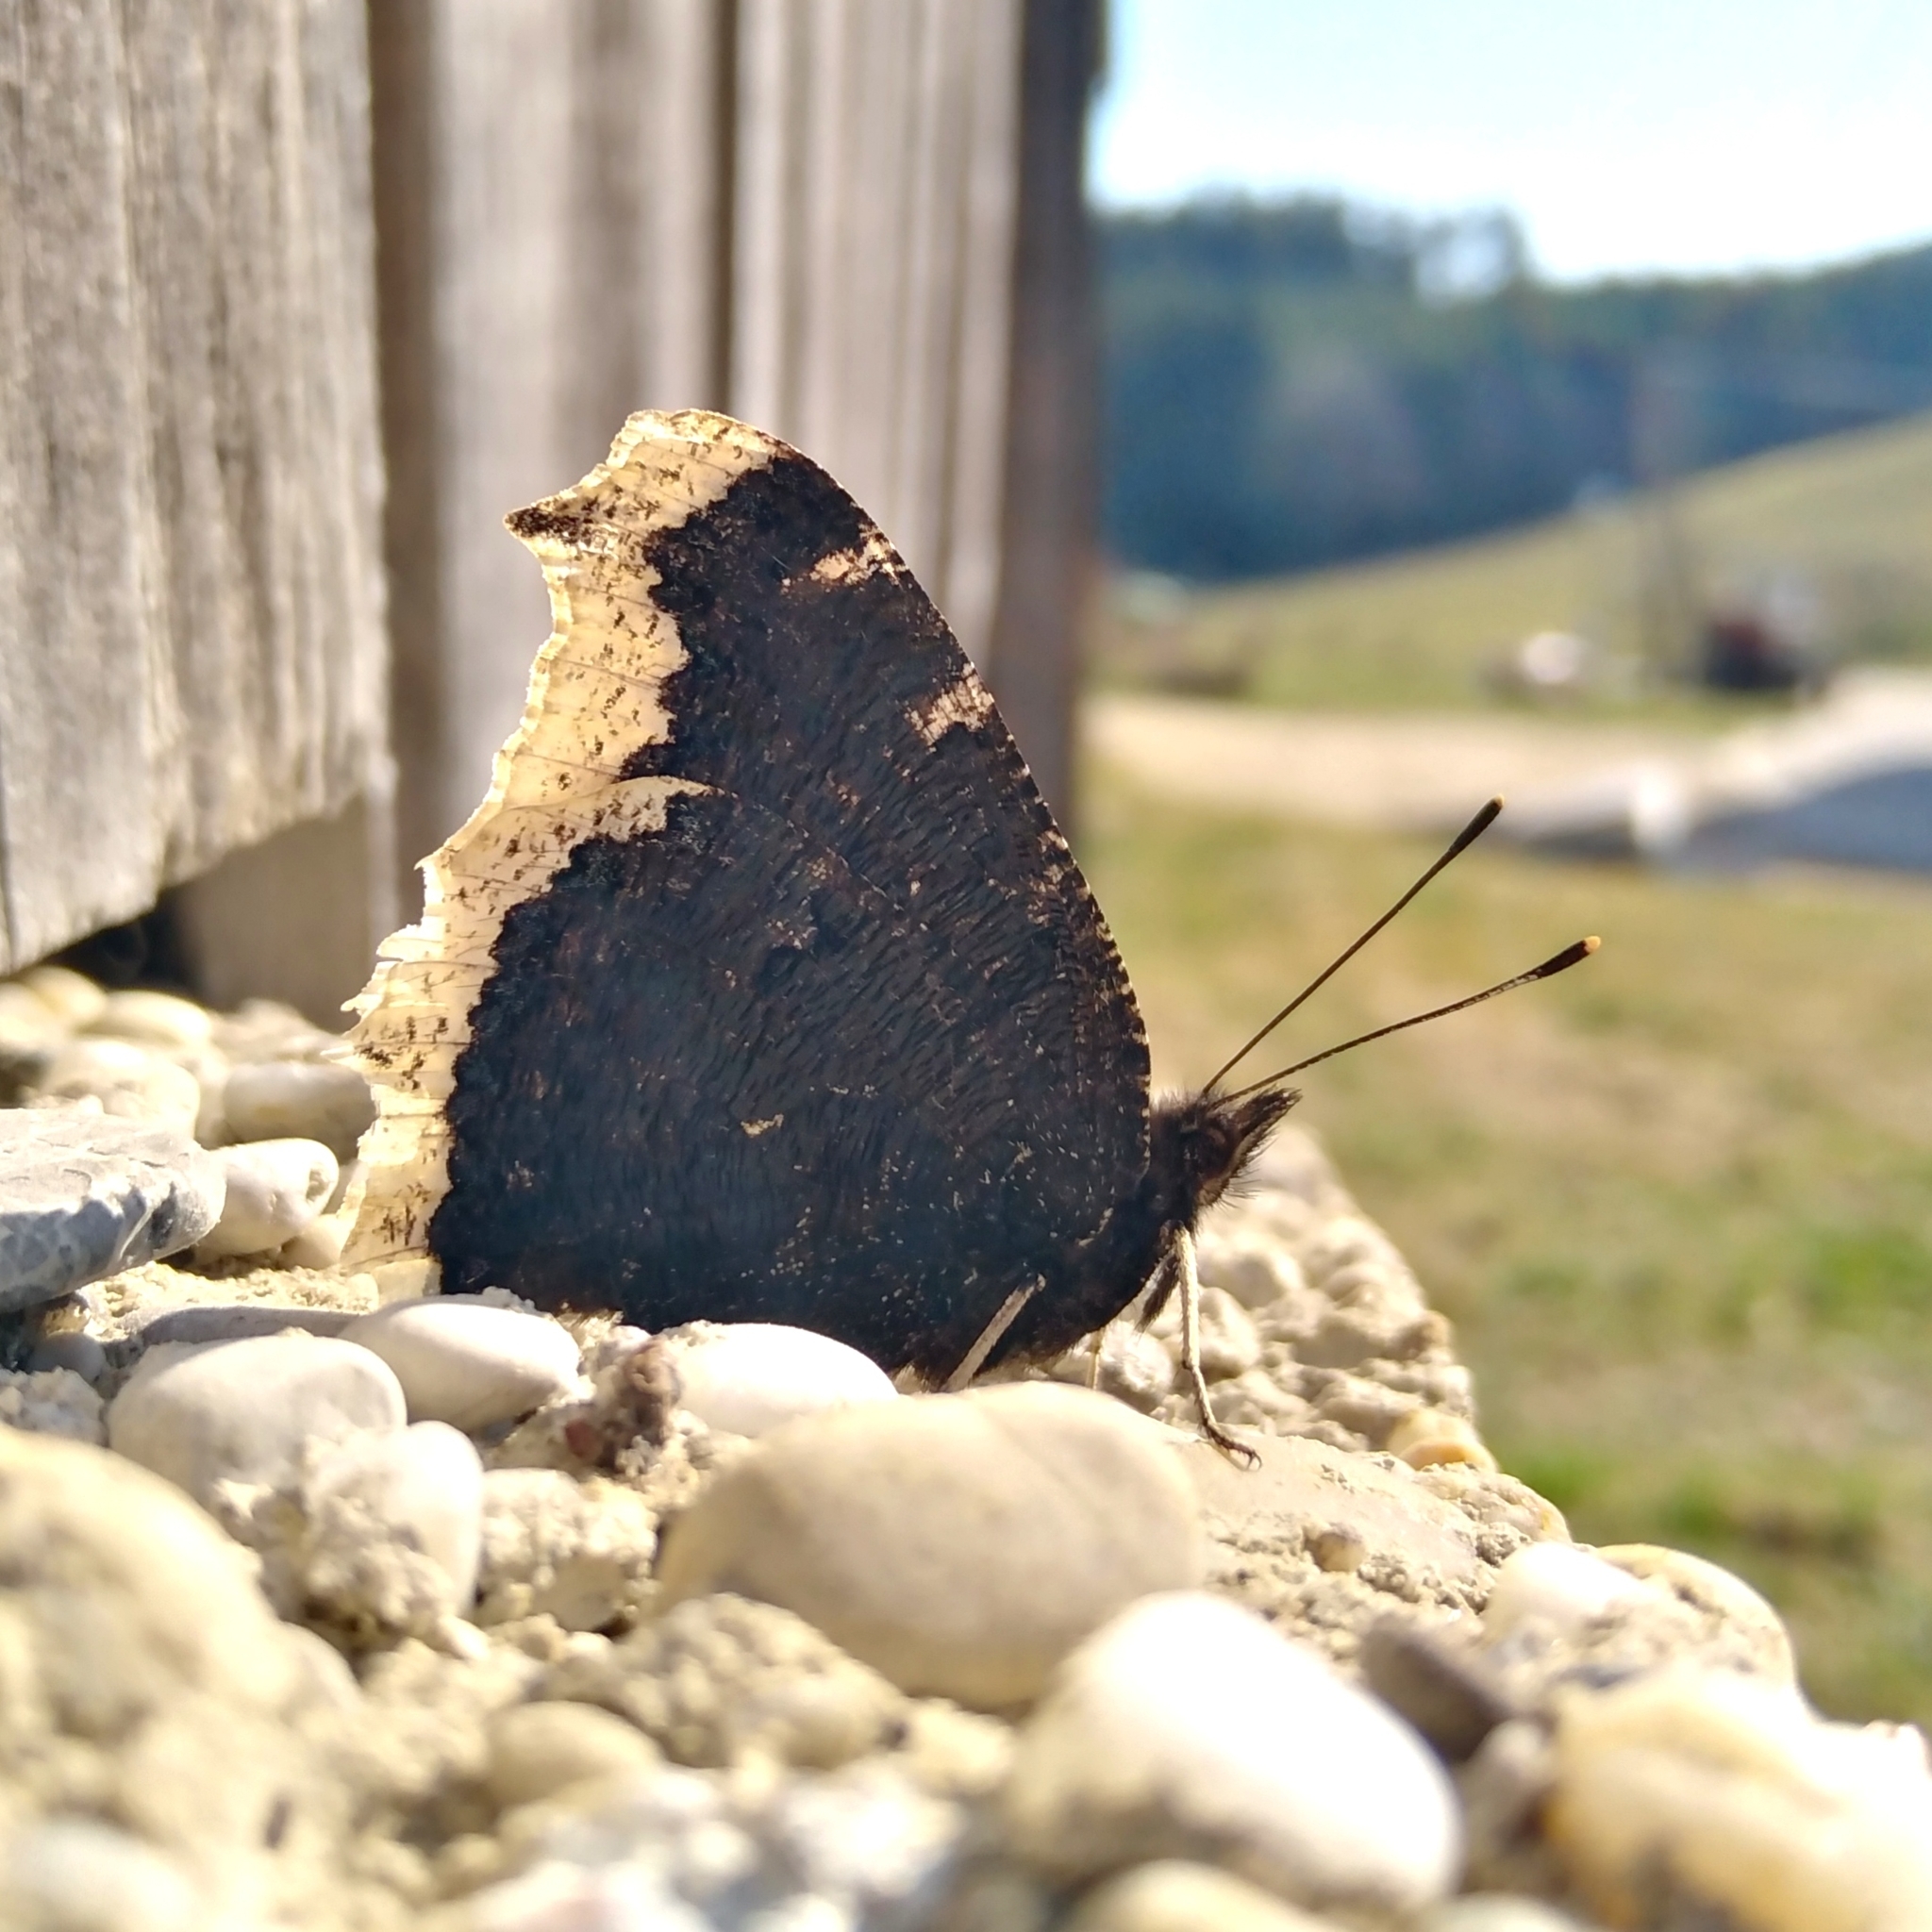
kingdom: Animalia
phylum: Arthropoda
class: Insecta
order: Lepidoptera
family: Nymphalidae
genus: Nymphalis
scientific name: Nymphalis antiopa
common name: Camberwell beauty
